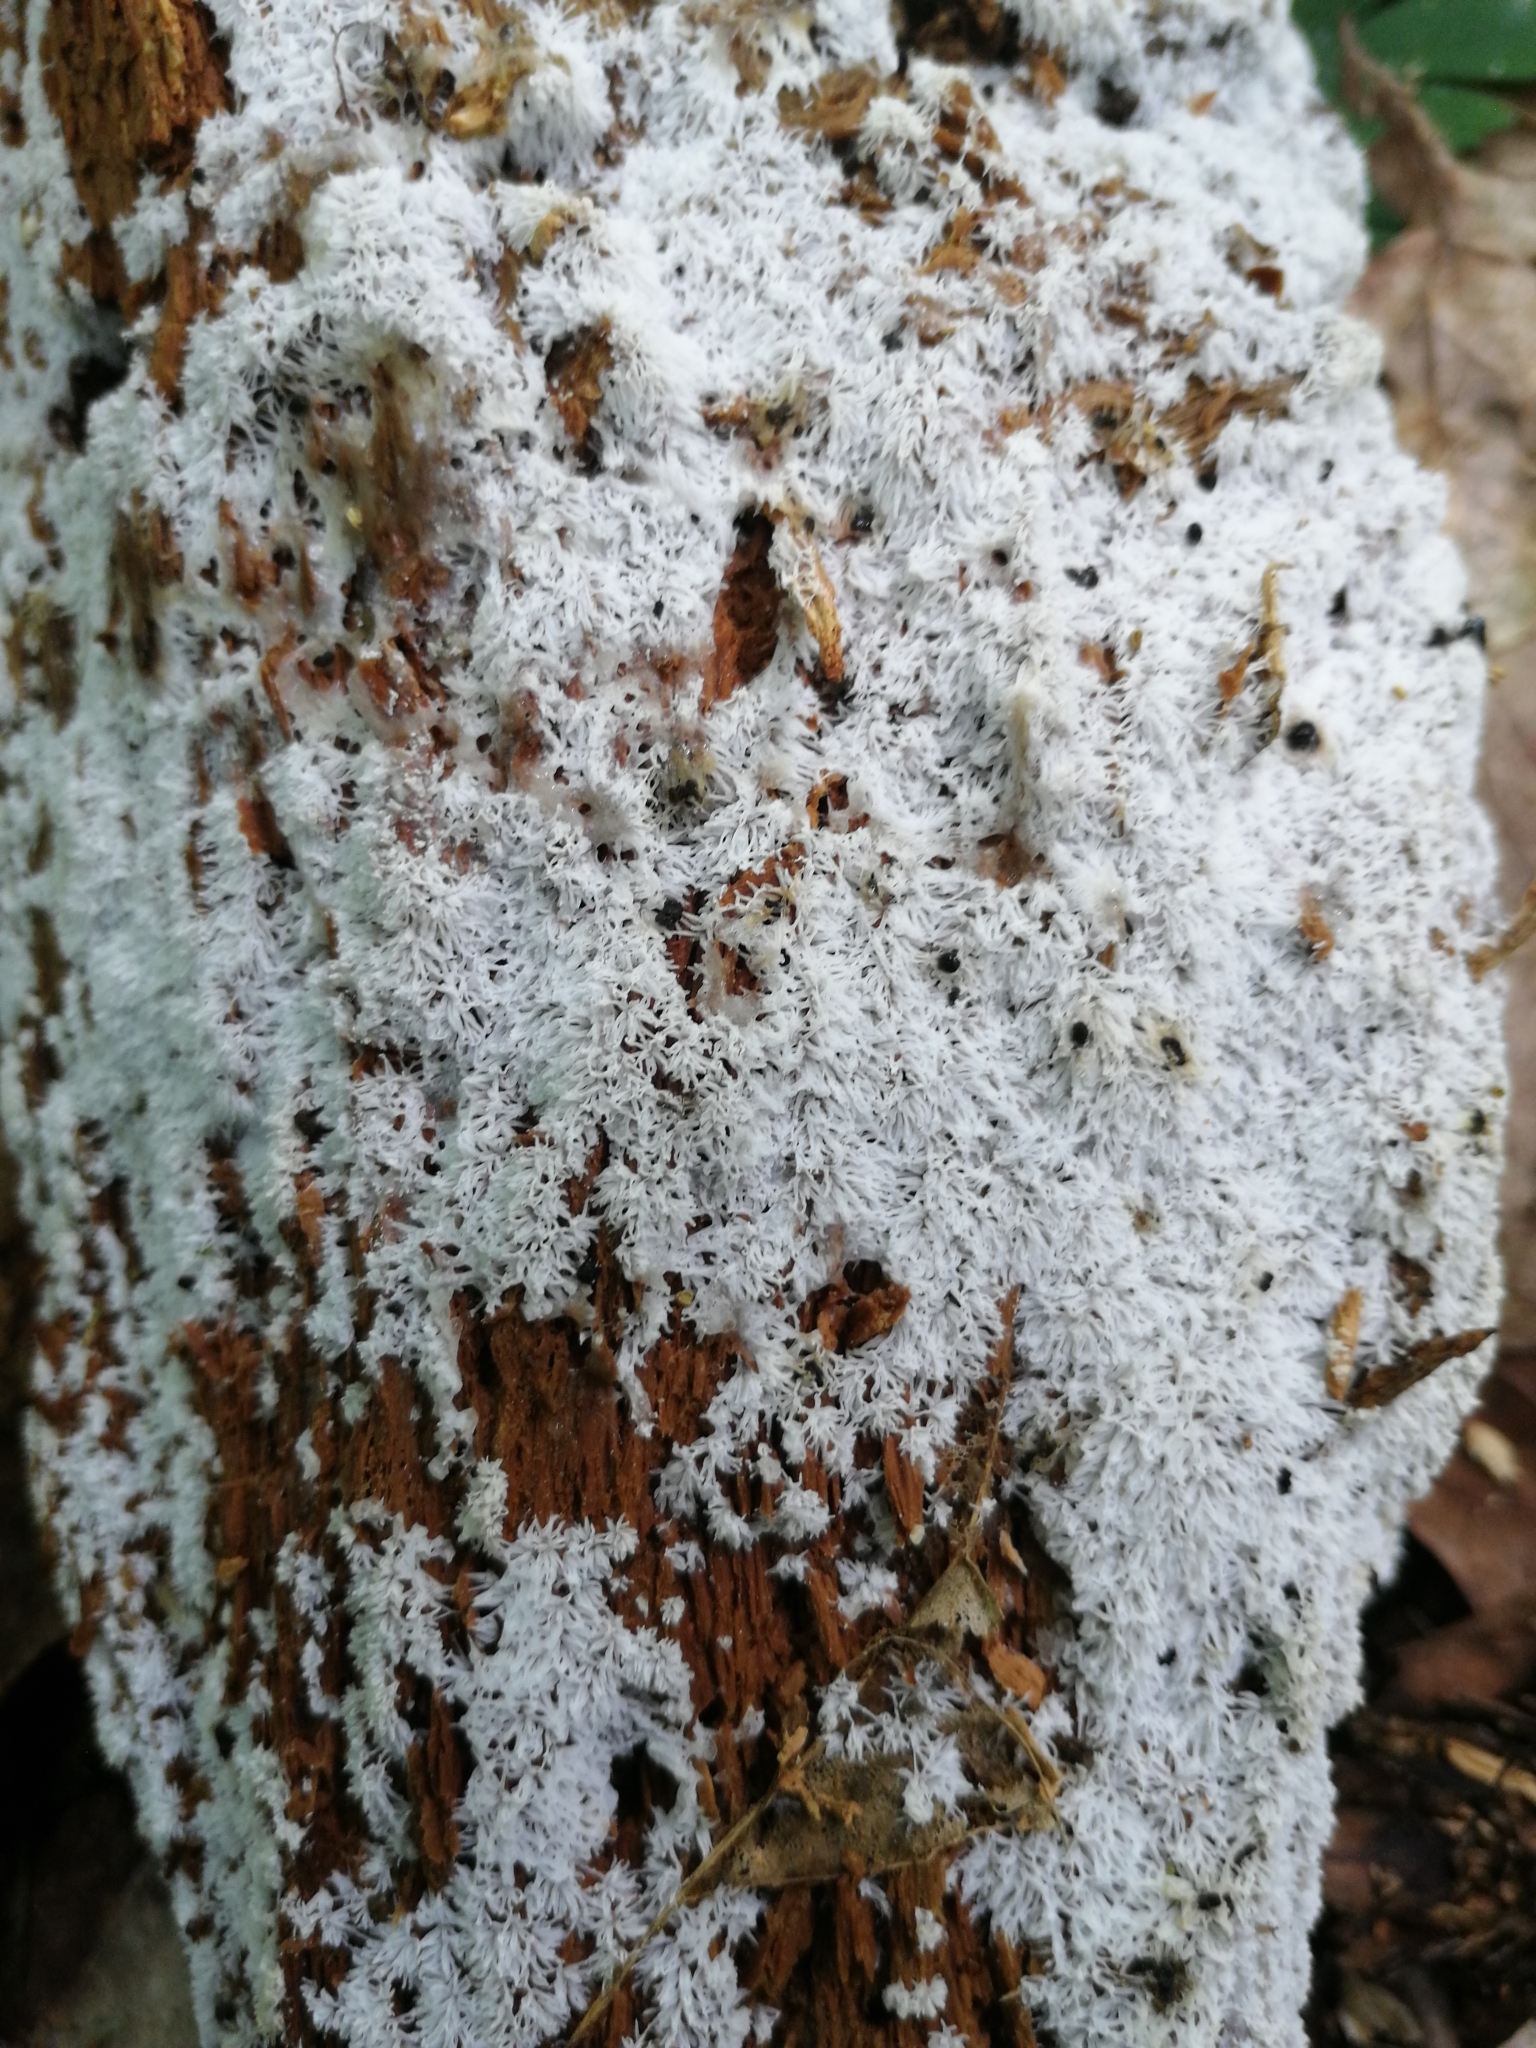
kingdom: Protozoa
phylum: Mycetozoa
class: Protosteliomycetes
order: Ceratiomyxales
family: Ceratiomyxaceae
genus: Ceratiomyxa
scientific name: Ceratiomyxa fruticulosa
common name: Honeycomb coral slime mold
